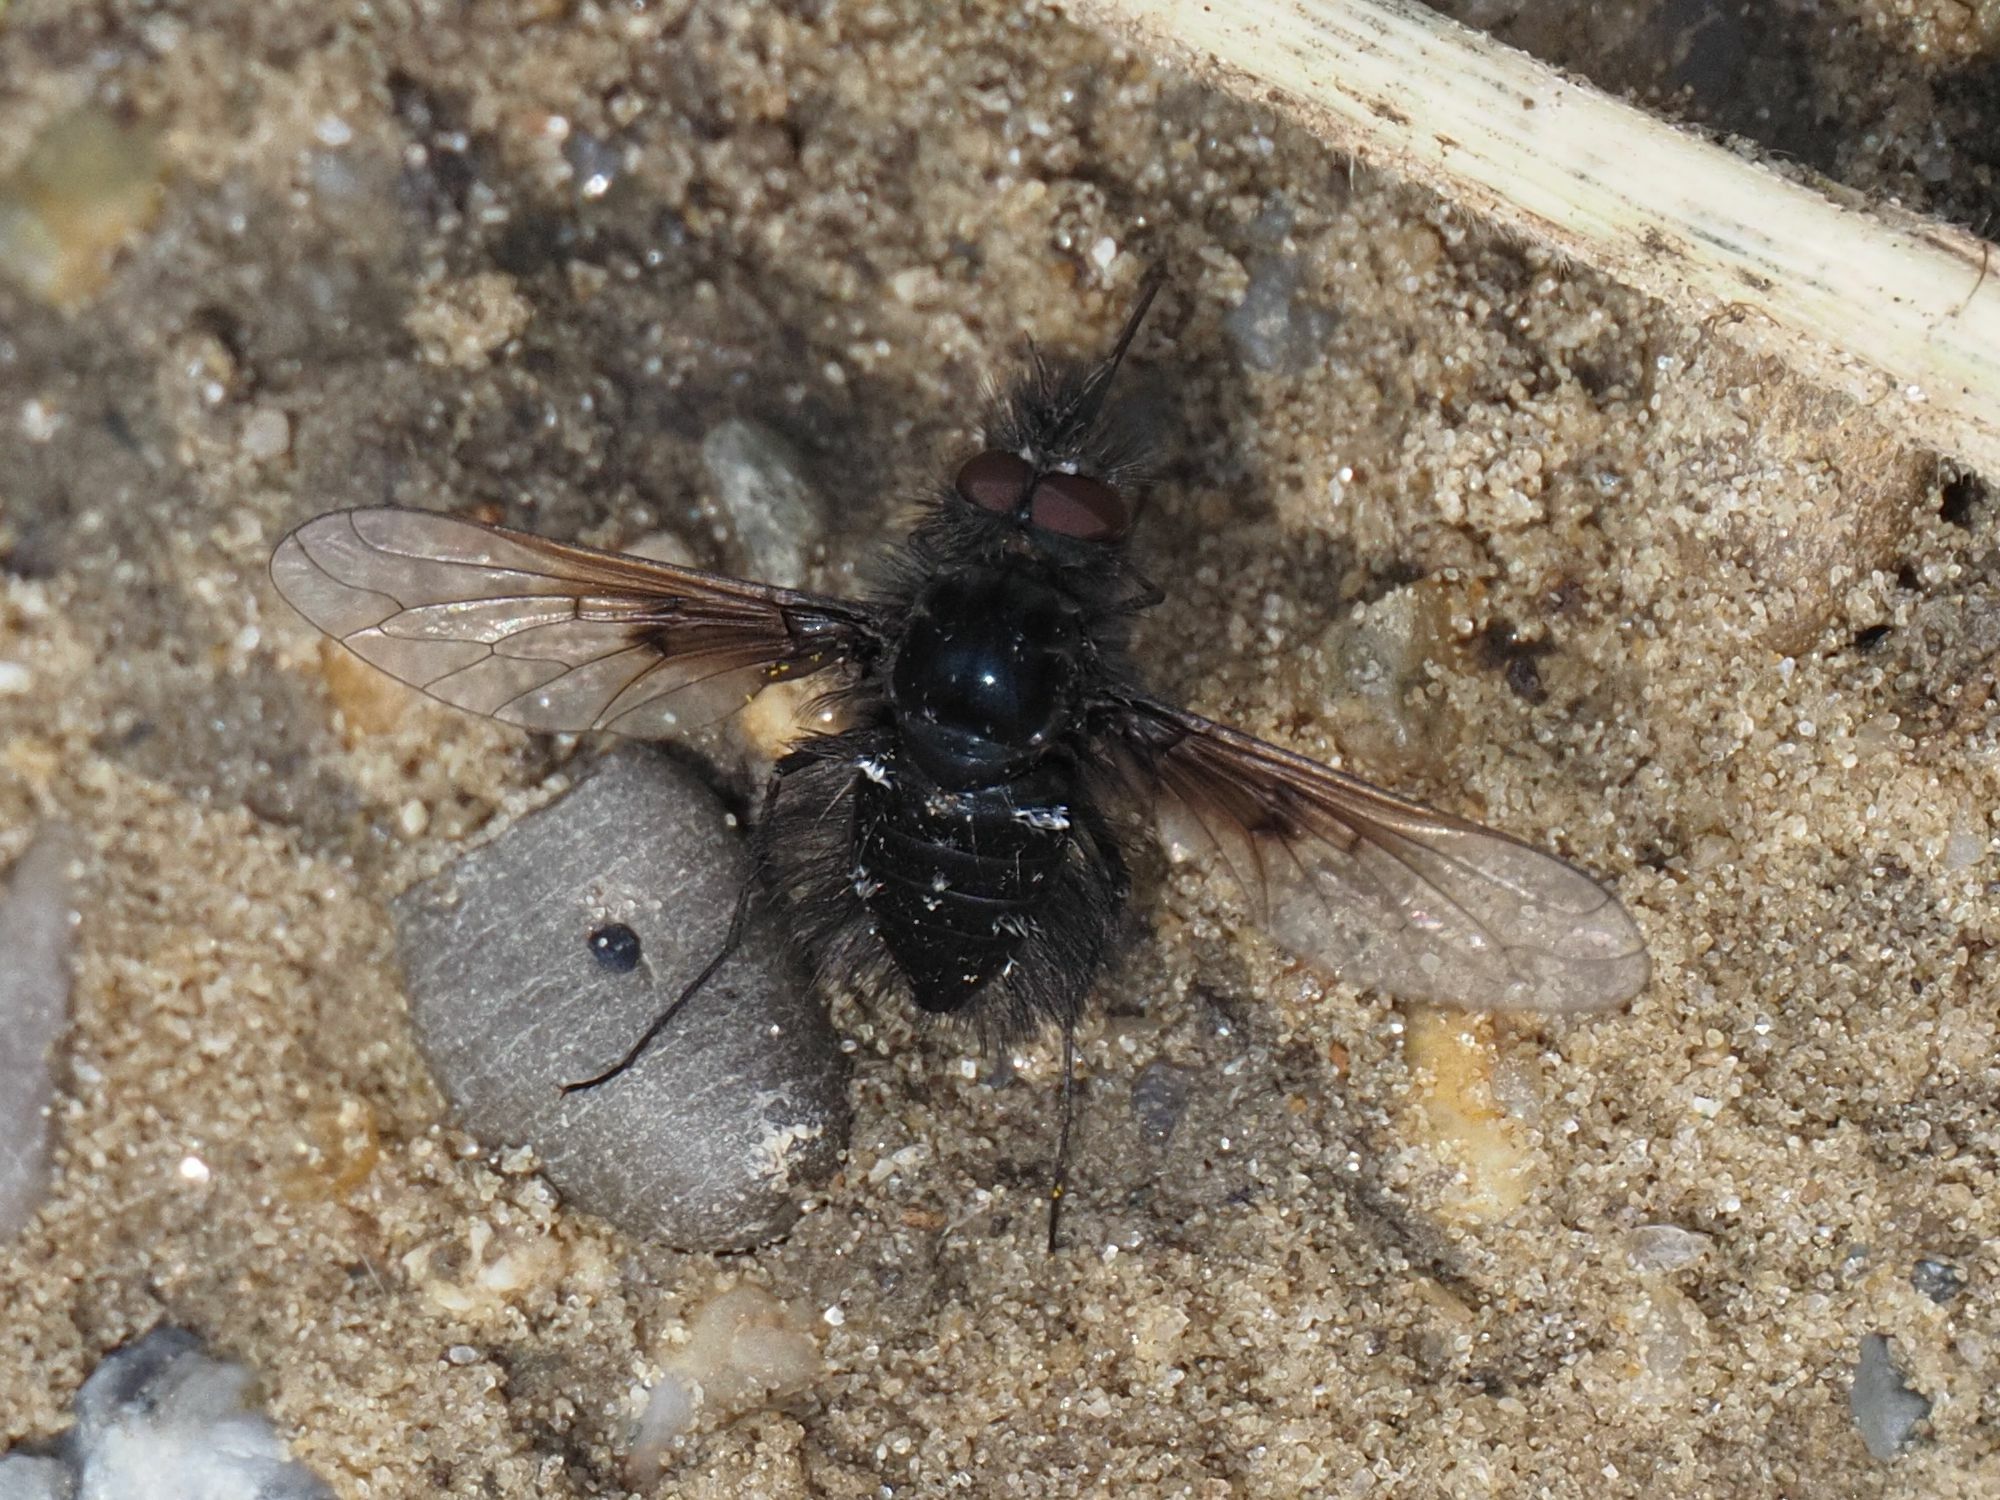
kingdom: Animalia
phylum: Arthropoda
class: Insecta
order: Diptera
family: Bombyliidae
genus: Bombylella
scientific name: Bombylella atra
